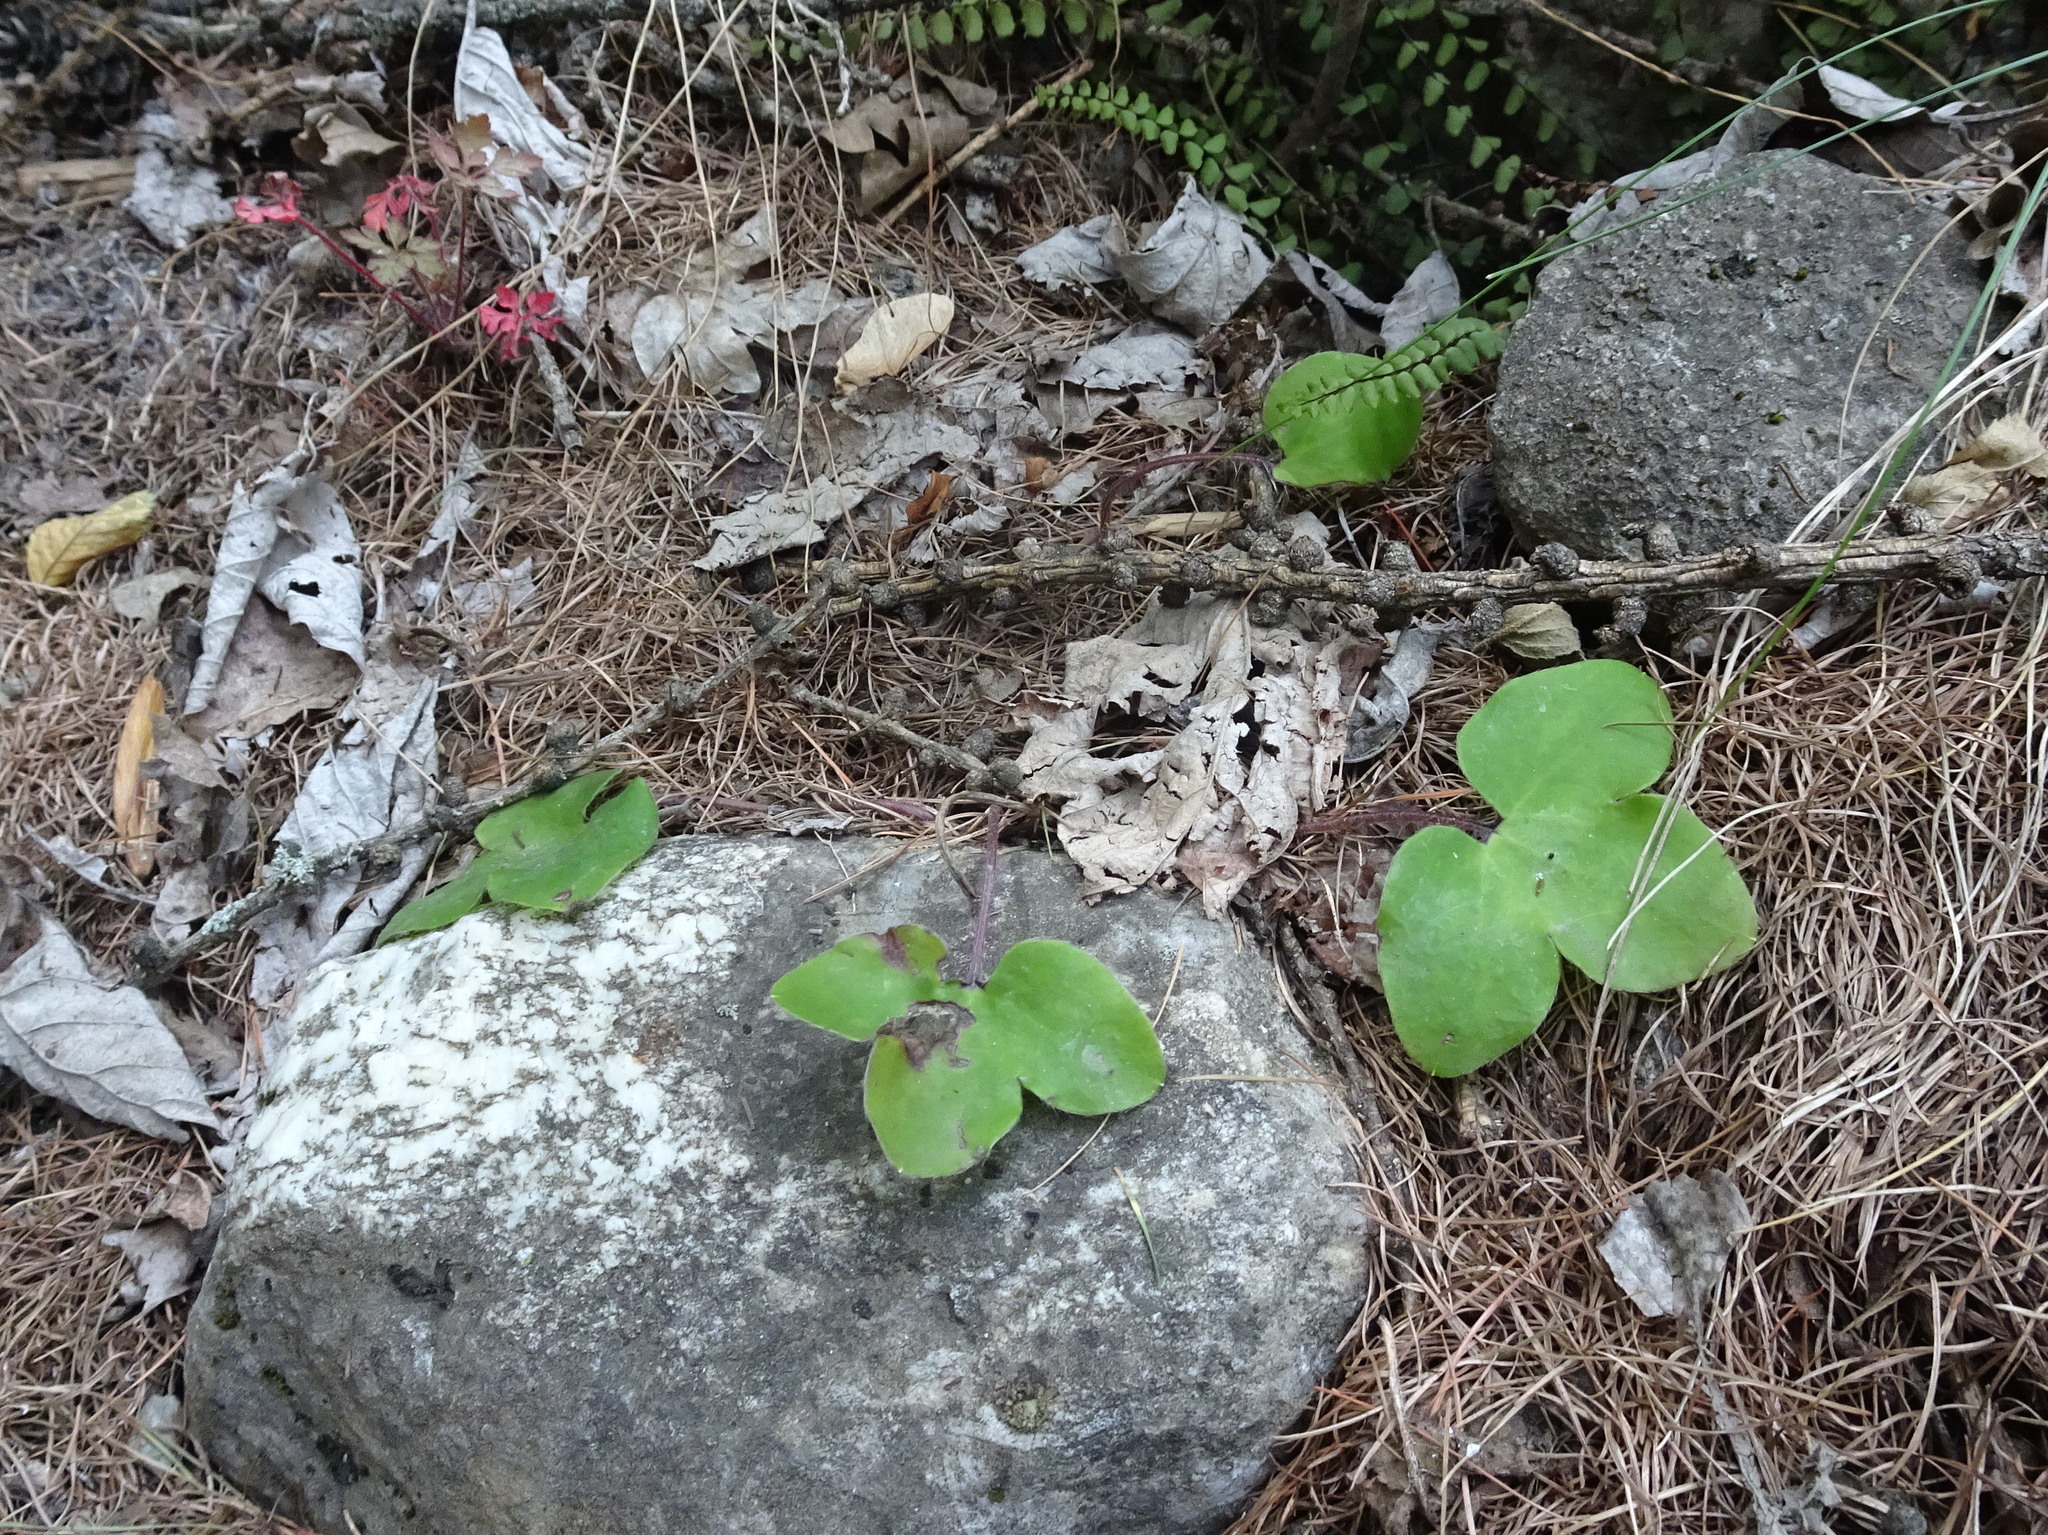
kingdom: Plantae
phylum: Tracheophyta
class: Magnoliopsida
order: Ranunculales
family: Ranunculaceae
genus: Hepatica
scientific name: Hepatica nobilis
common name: Liverleaf
